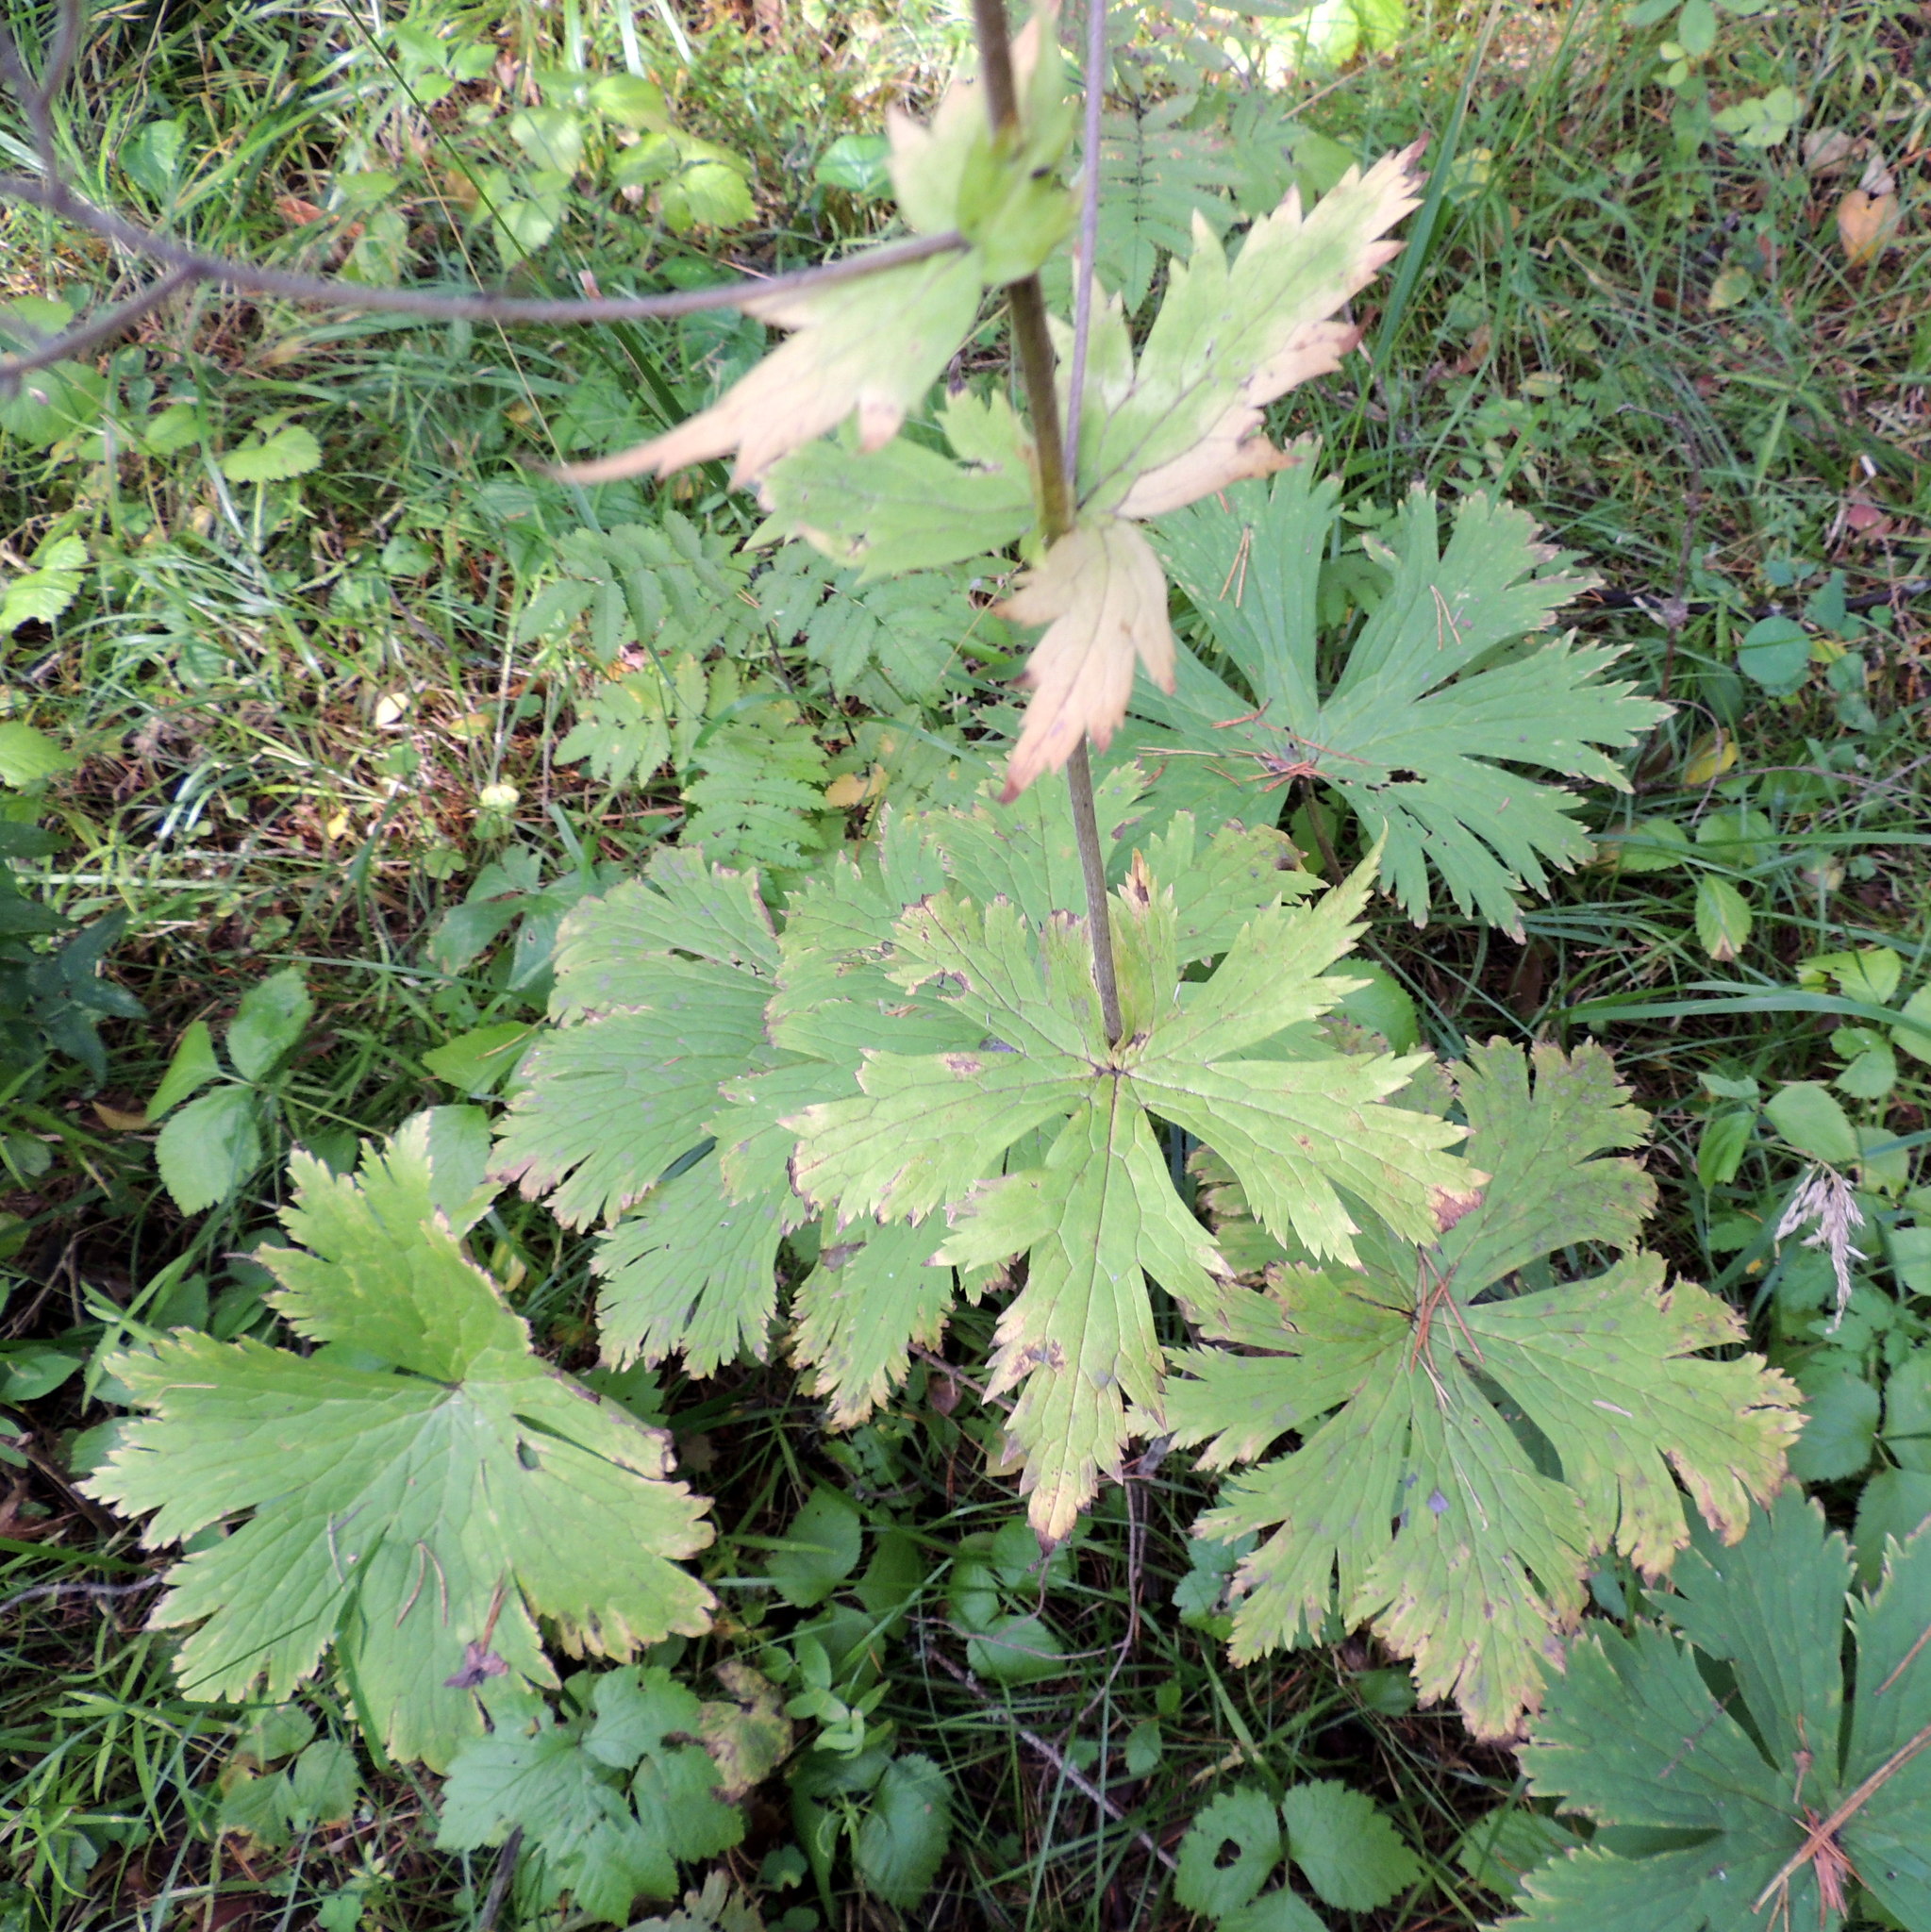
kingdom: Plantae
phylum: Tracheophyta
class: Magnoliopsida
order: Ranunculales
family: Ranunculaceae
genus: Aconitum
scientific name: Aconitum septentrionale
